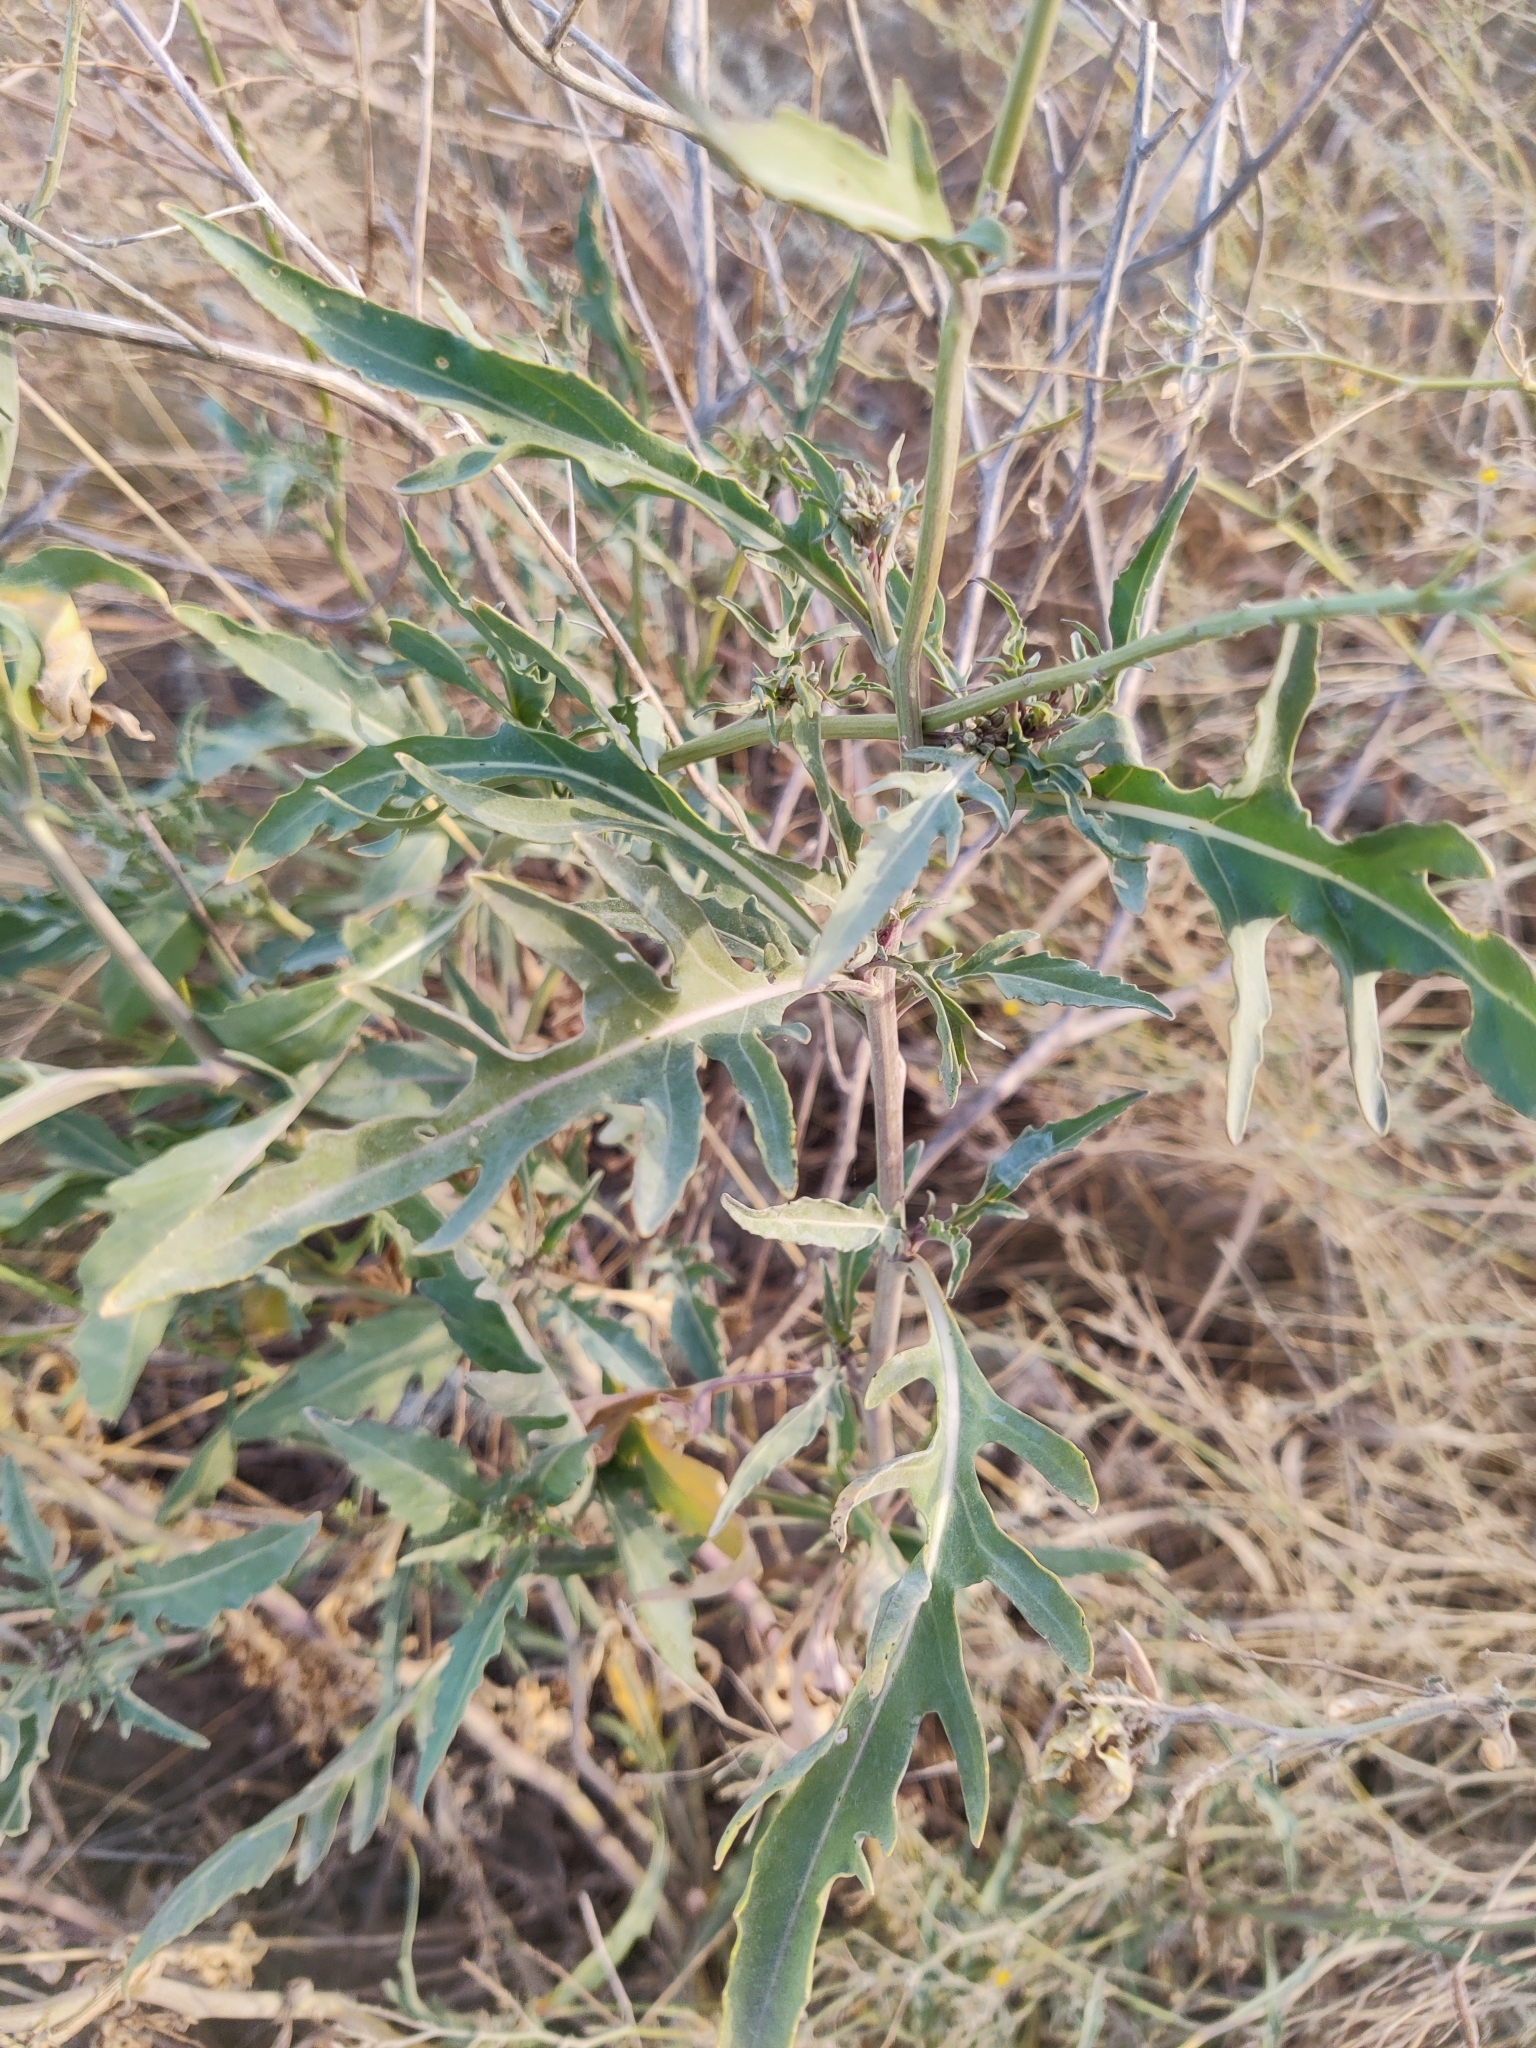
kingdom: Plantae
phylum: Tracheophyta
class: Magnoliopsida
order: Brassicales
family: Brassicaceae
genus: Diplotaxis
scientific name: Diplotaxis tenuifolia
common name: Perennial wall-rocket
